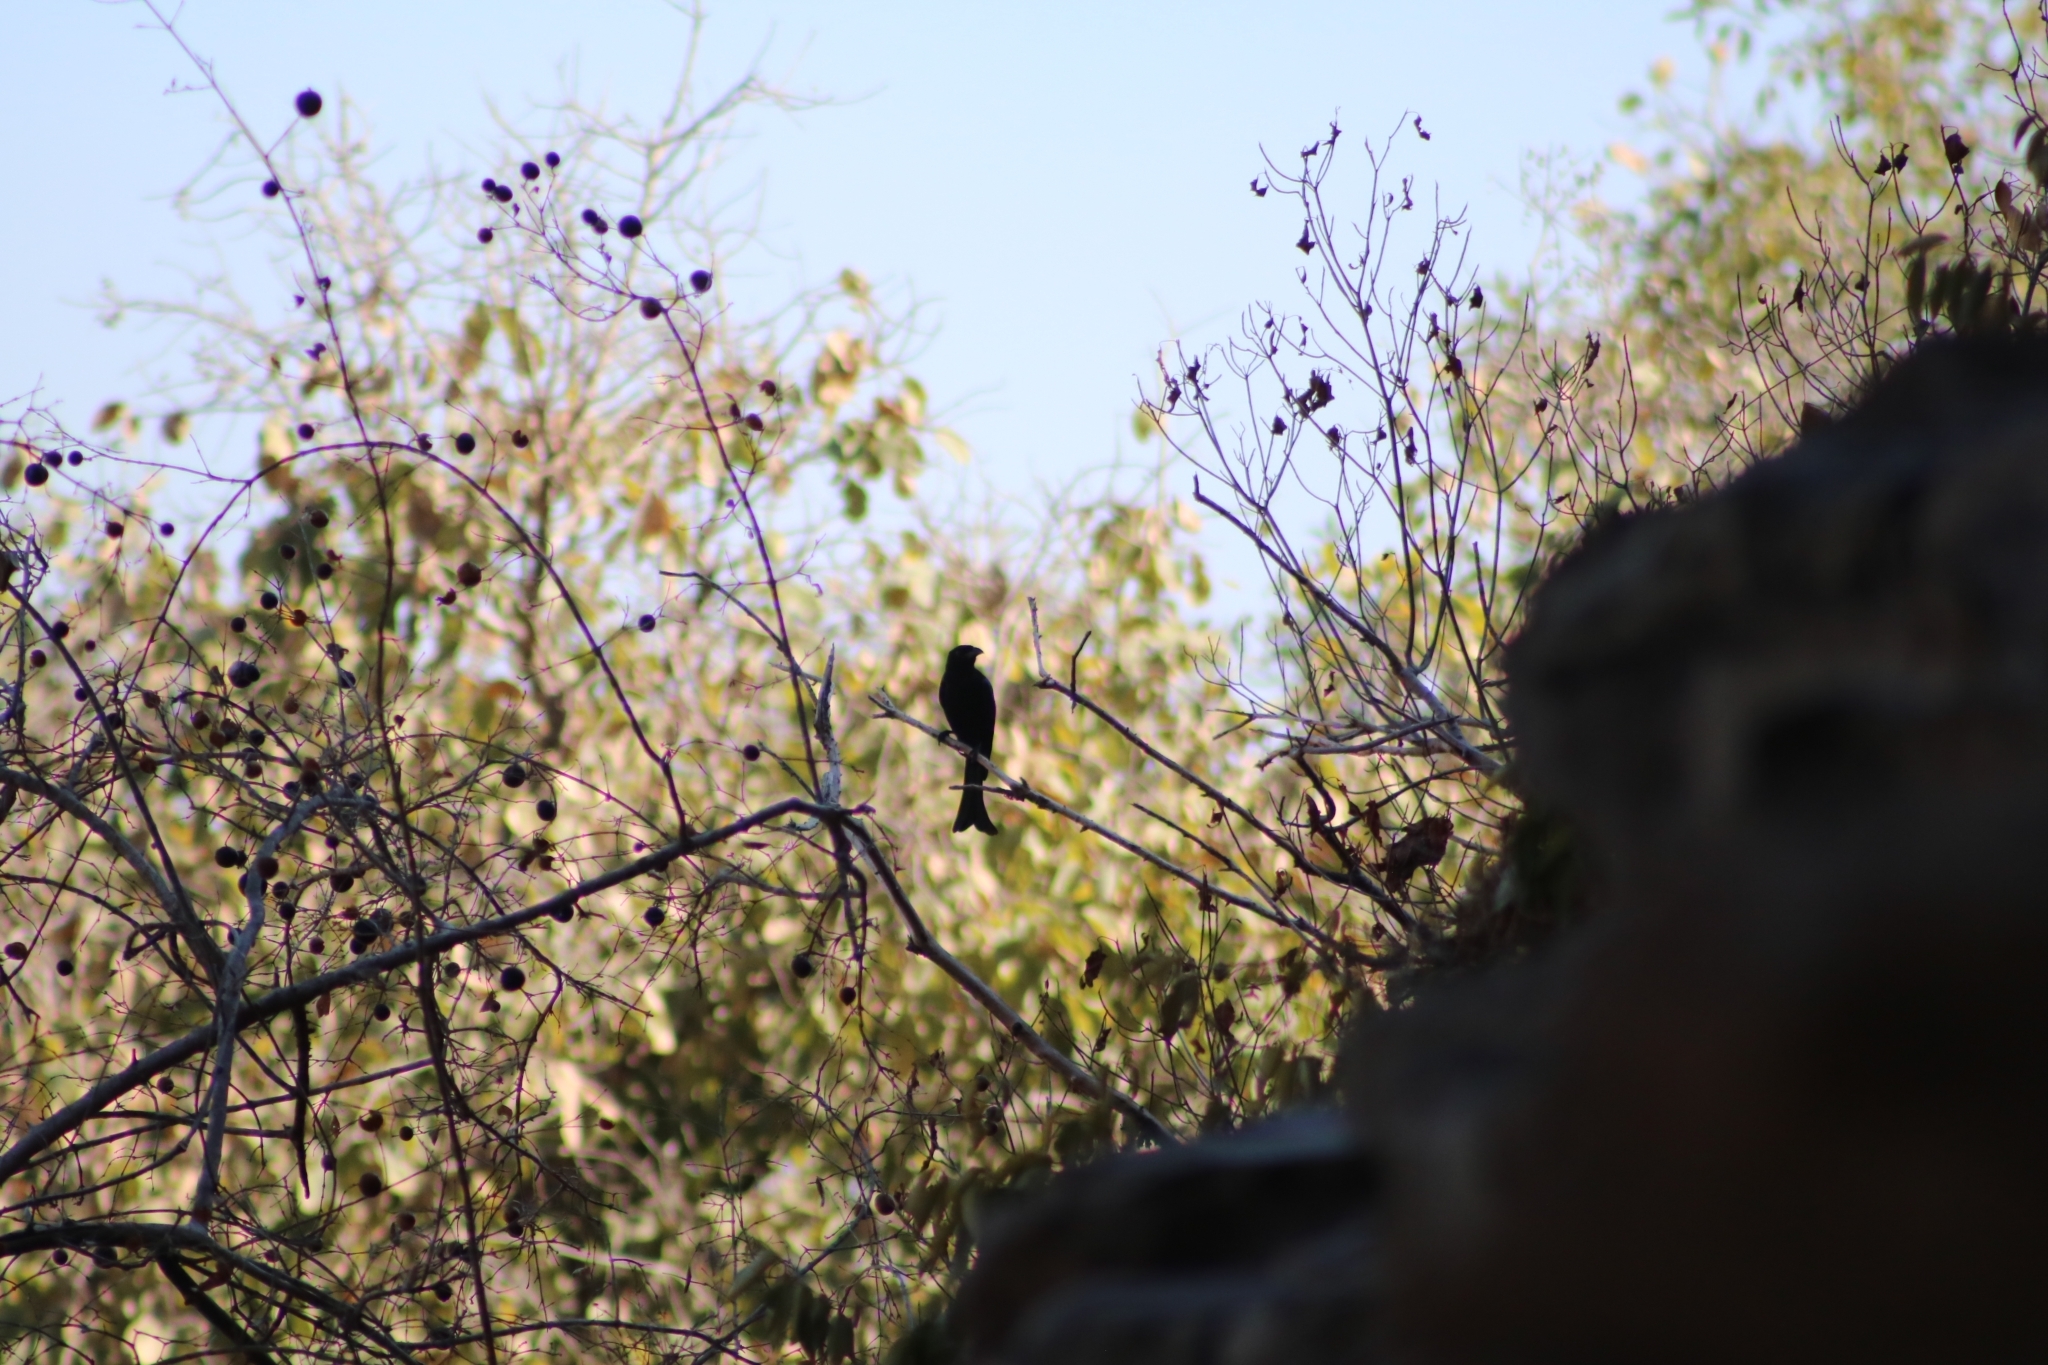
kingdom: Animalia
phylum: Chordata
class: Aves
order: Passeriformes
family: Dicruridae
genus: Dicrurus
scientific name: Dicrurus bracteatus
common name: Spangled drongo
